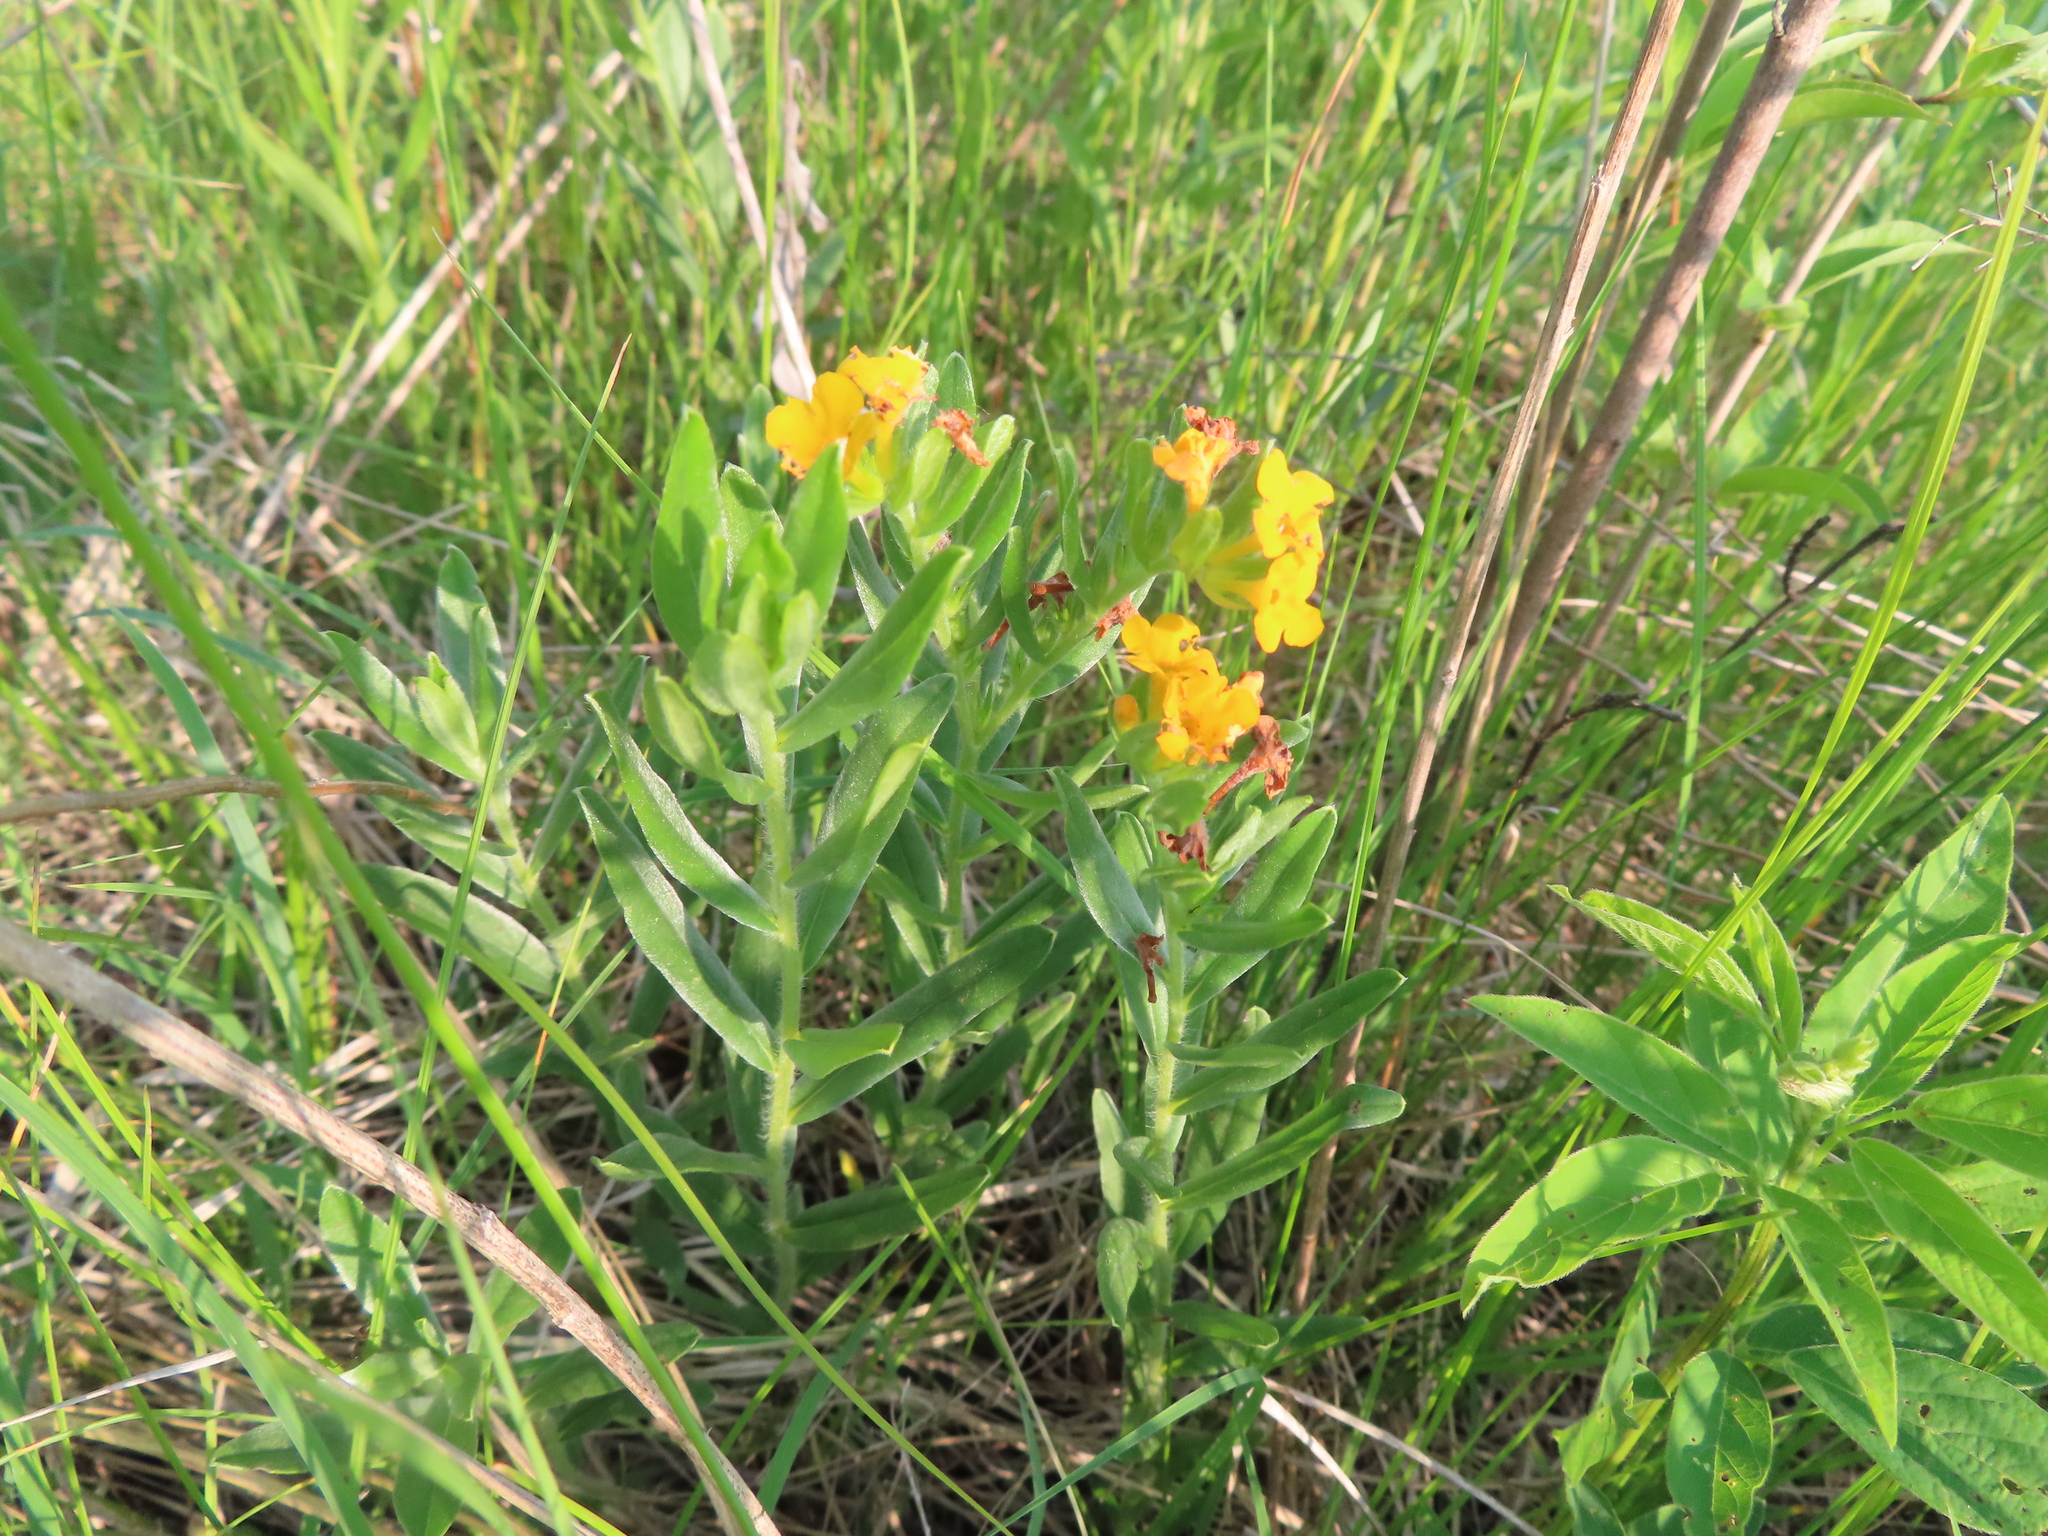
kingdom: Plantae
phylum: Tracheophyta
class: Magnoliopsida
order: Boraginales
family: Boraginaceae
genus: Lithospermum
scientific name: Lithospermum canescens
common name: Hoary puccoon
